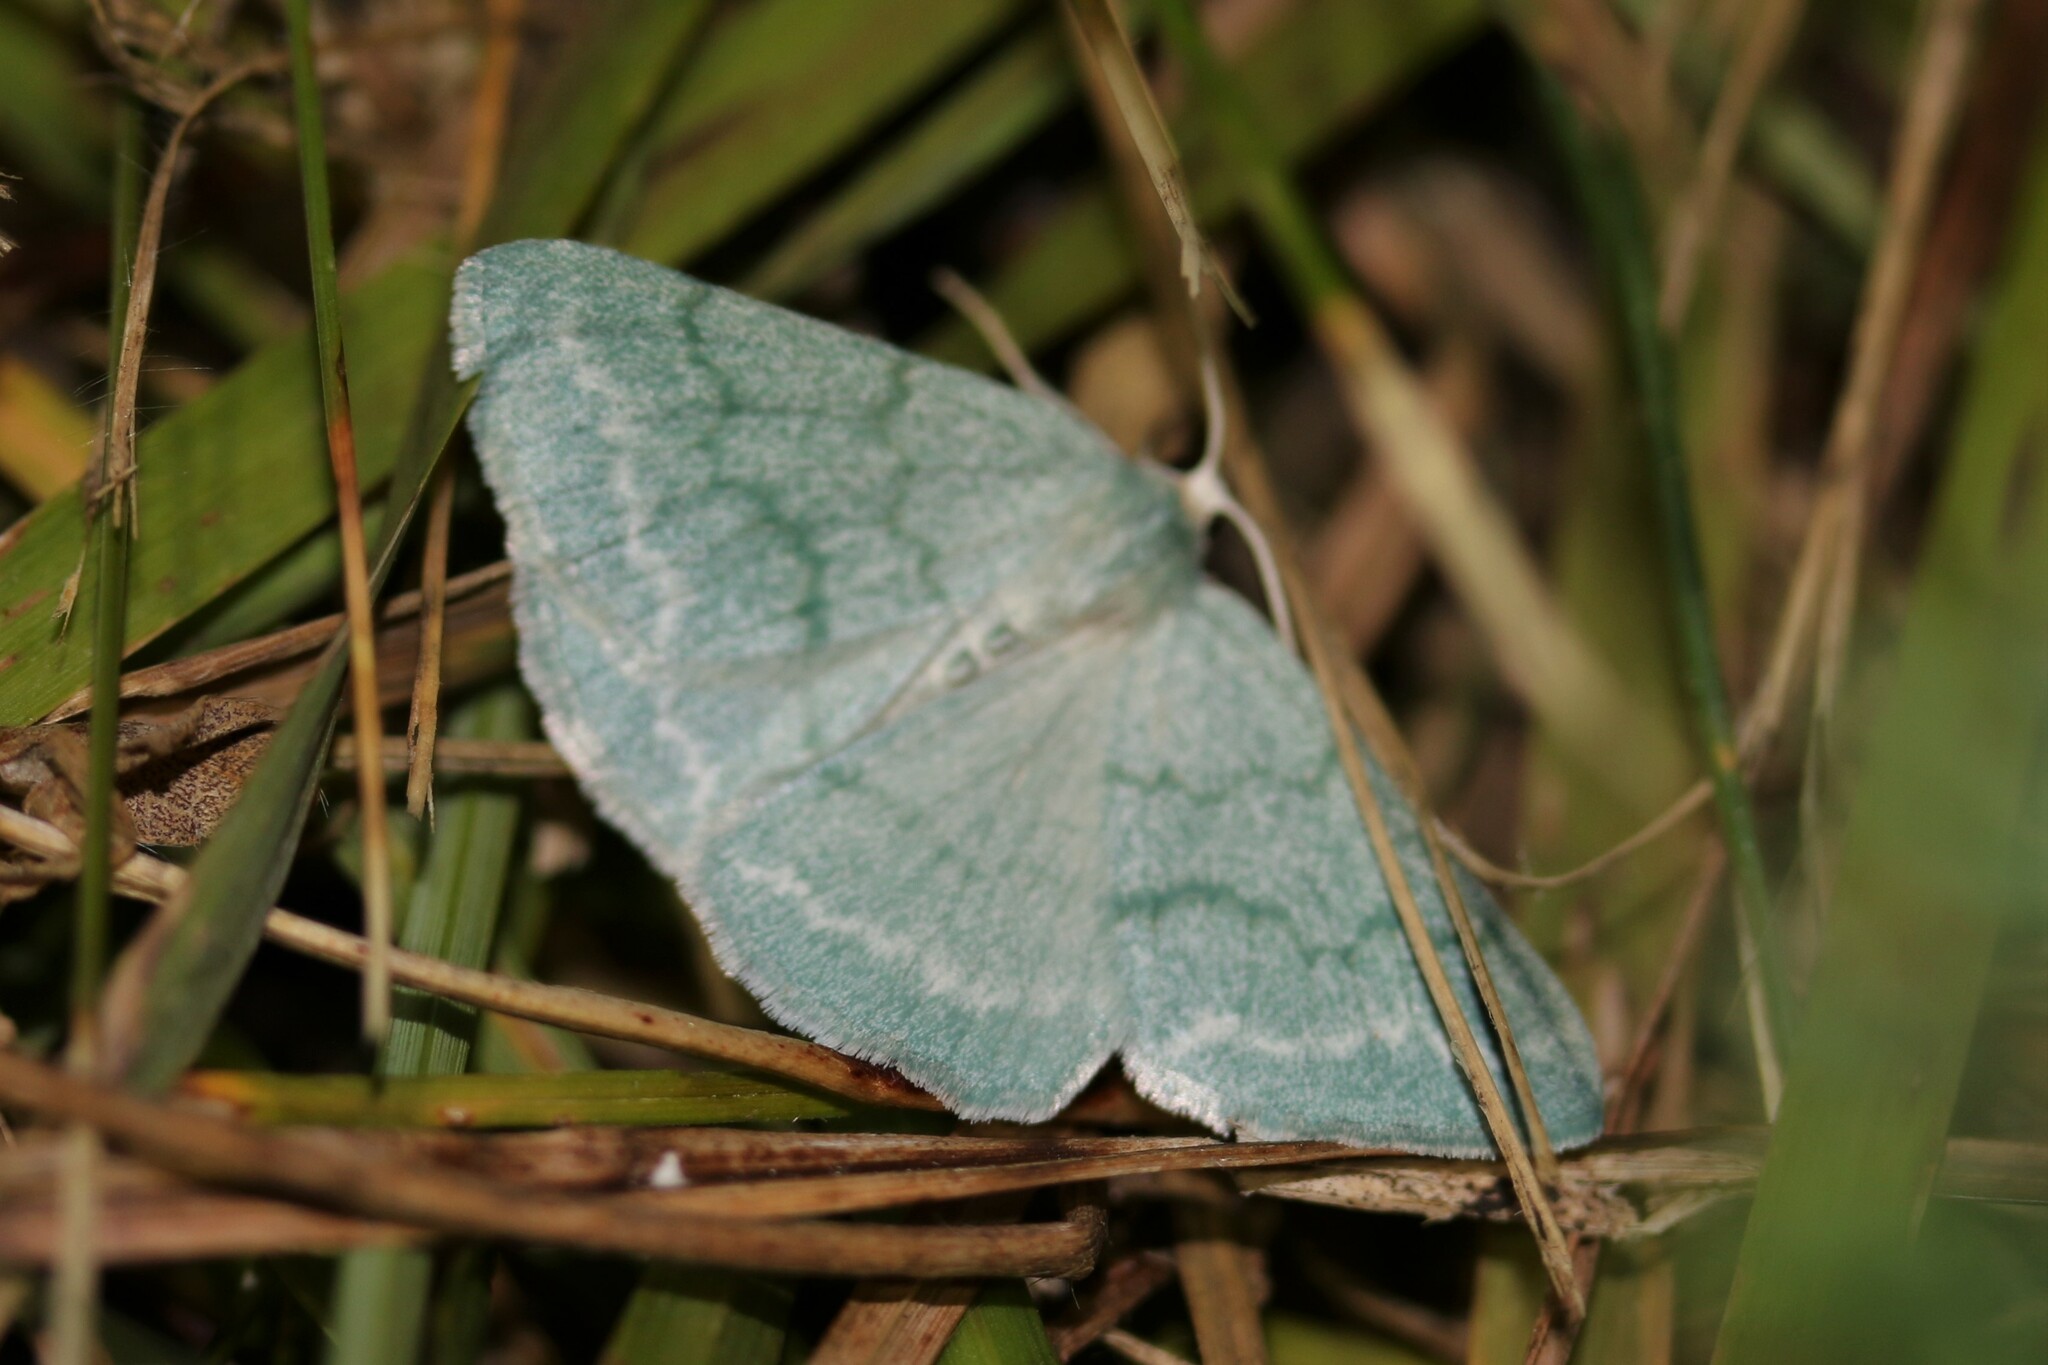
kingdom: Animalia
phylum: Arthropoda
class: Insecta
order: Lepidoptera
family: Geometridae
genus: Pseudoterpna
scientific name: Pseudoterpna pruinata
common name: Grass emerald
